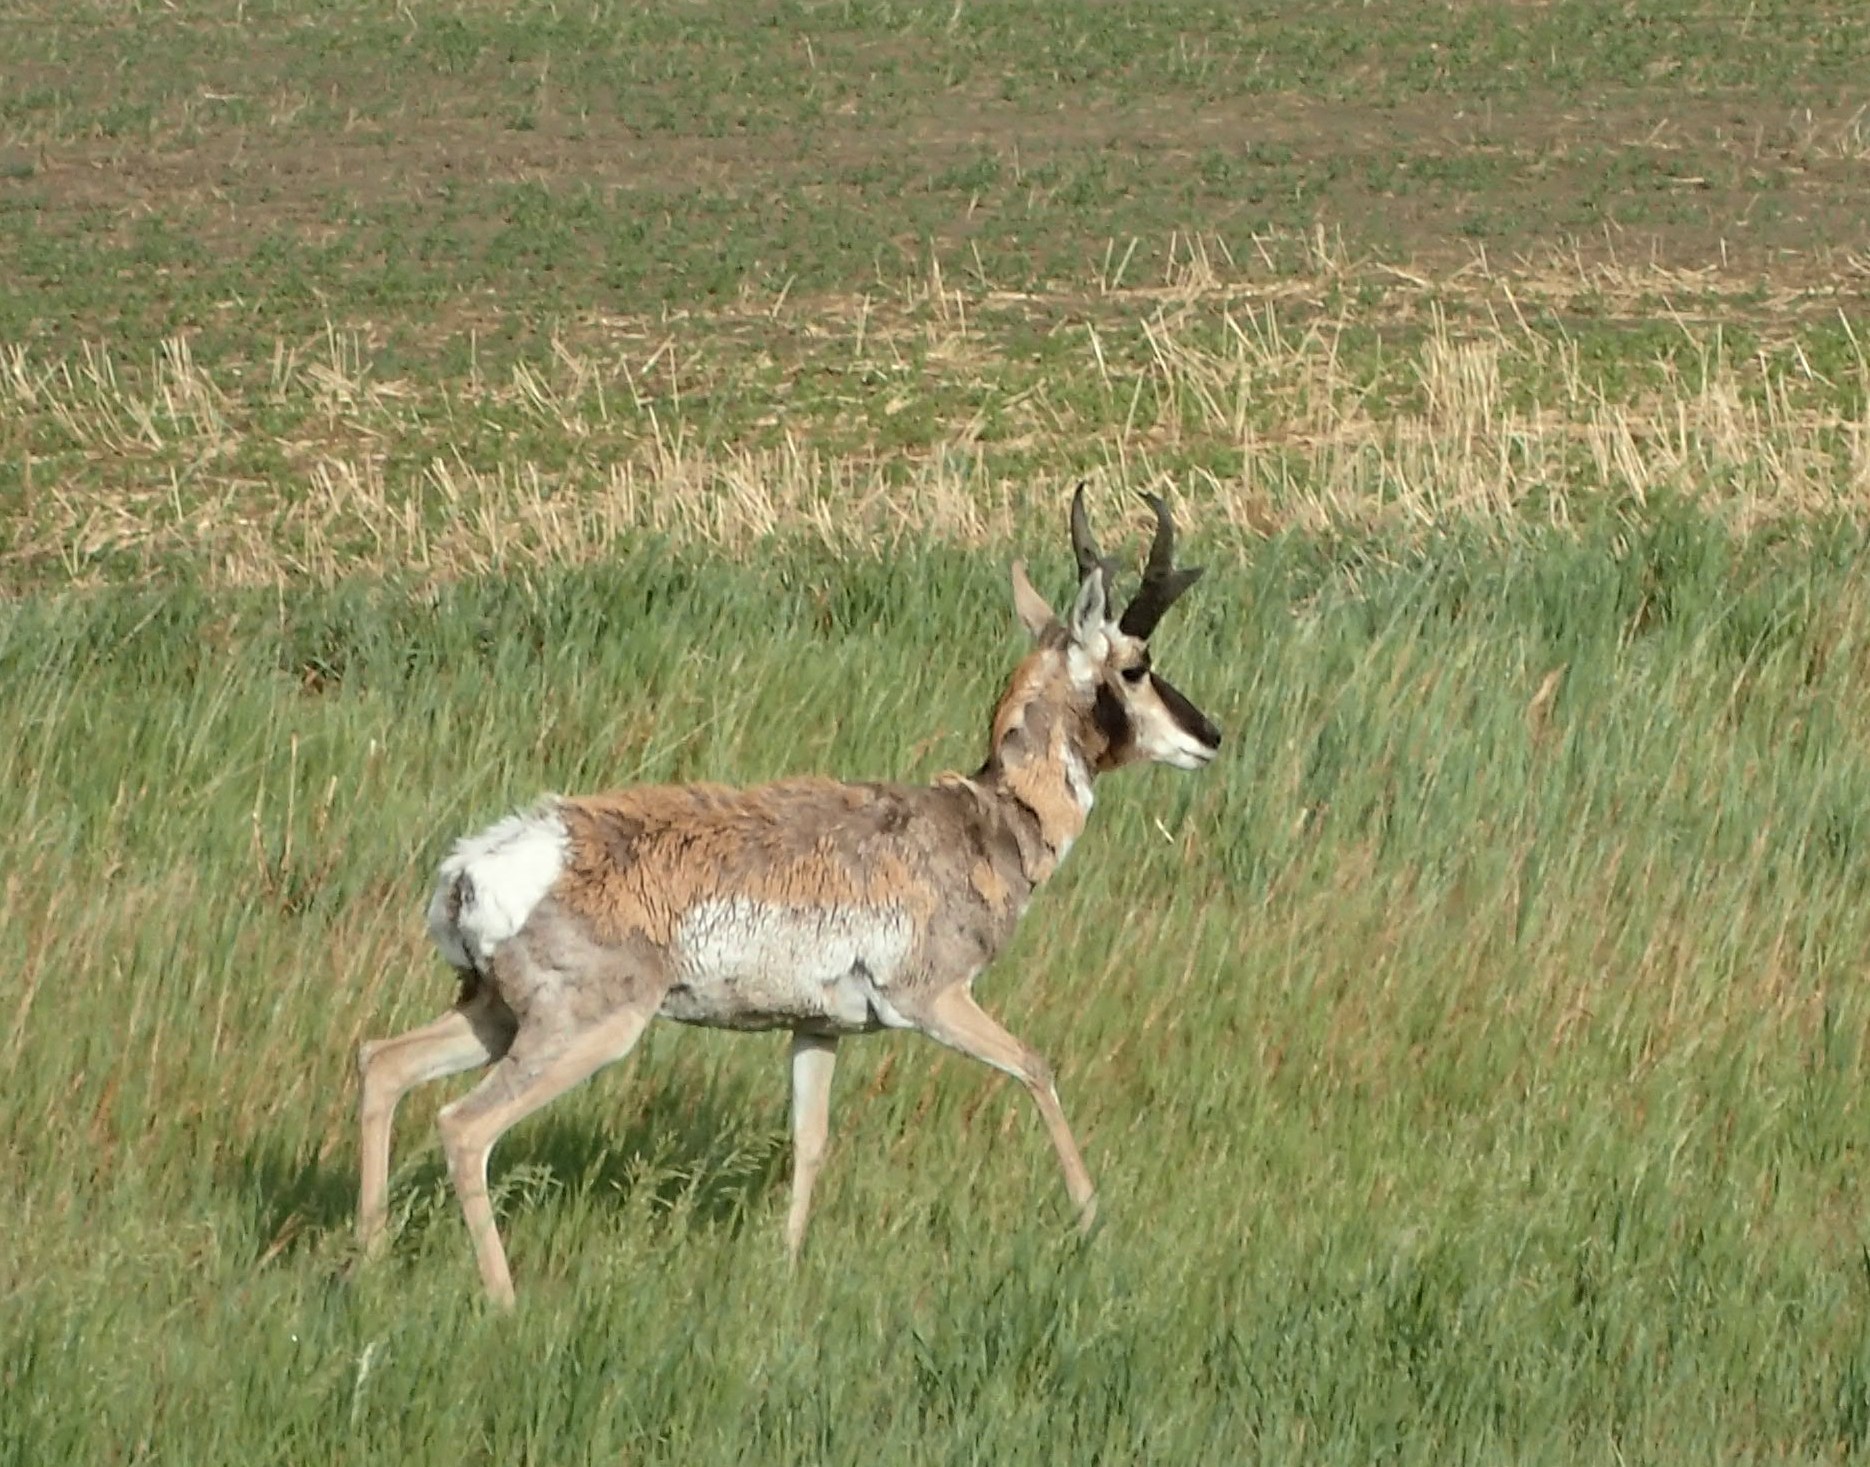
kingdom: Animalia
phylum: Chordata
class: Mammalia
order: Artiodactyla
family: Antilocapridae
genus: Antilocapra
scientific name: Antilocapra americana
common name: Pronghorn
